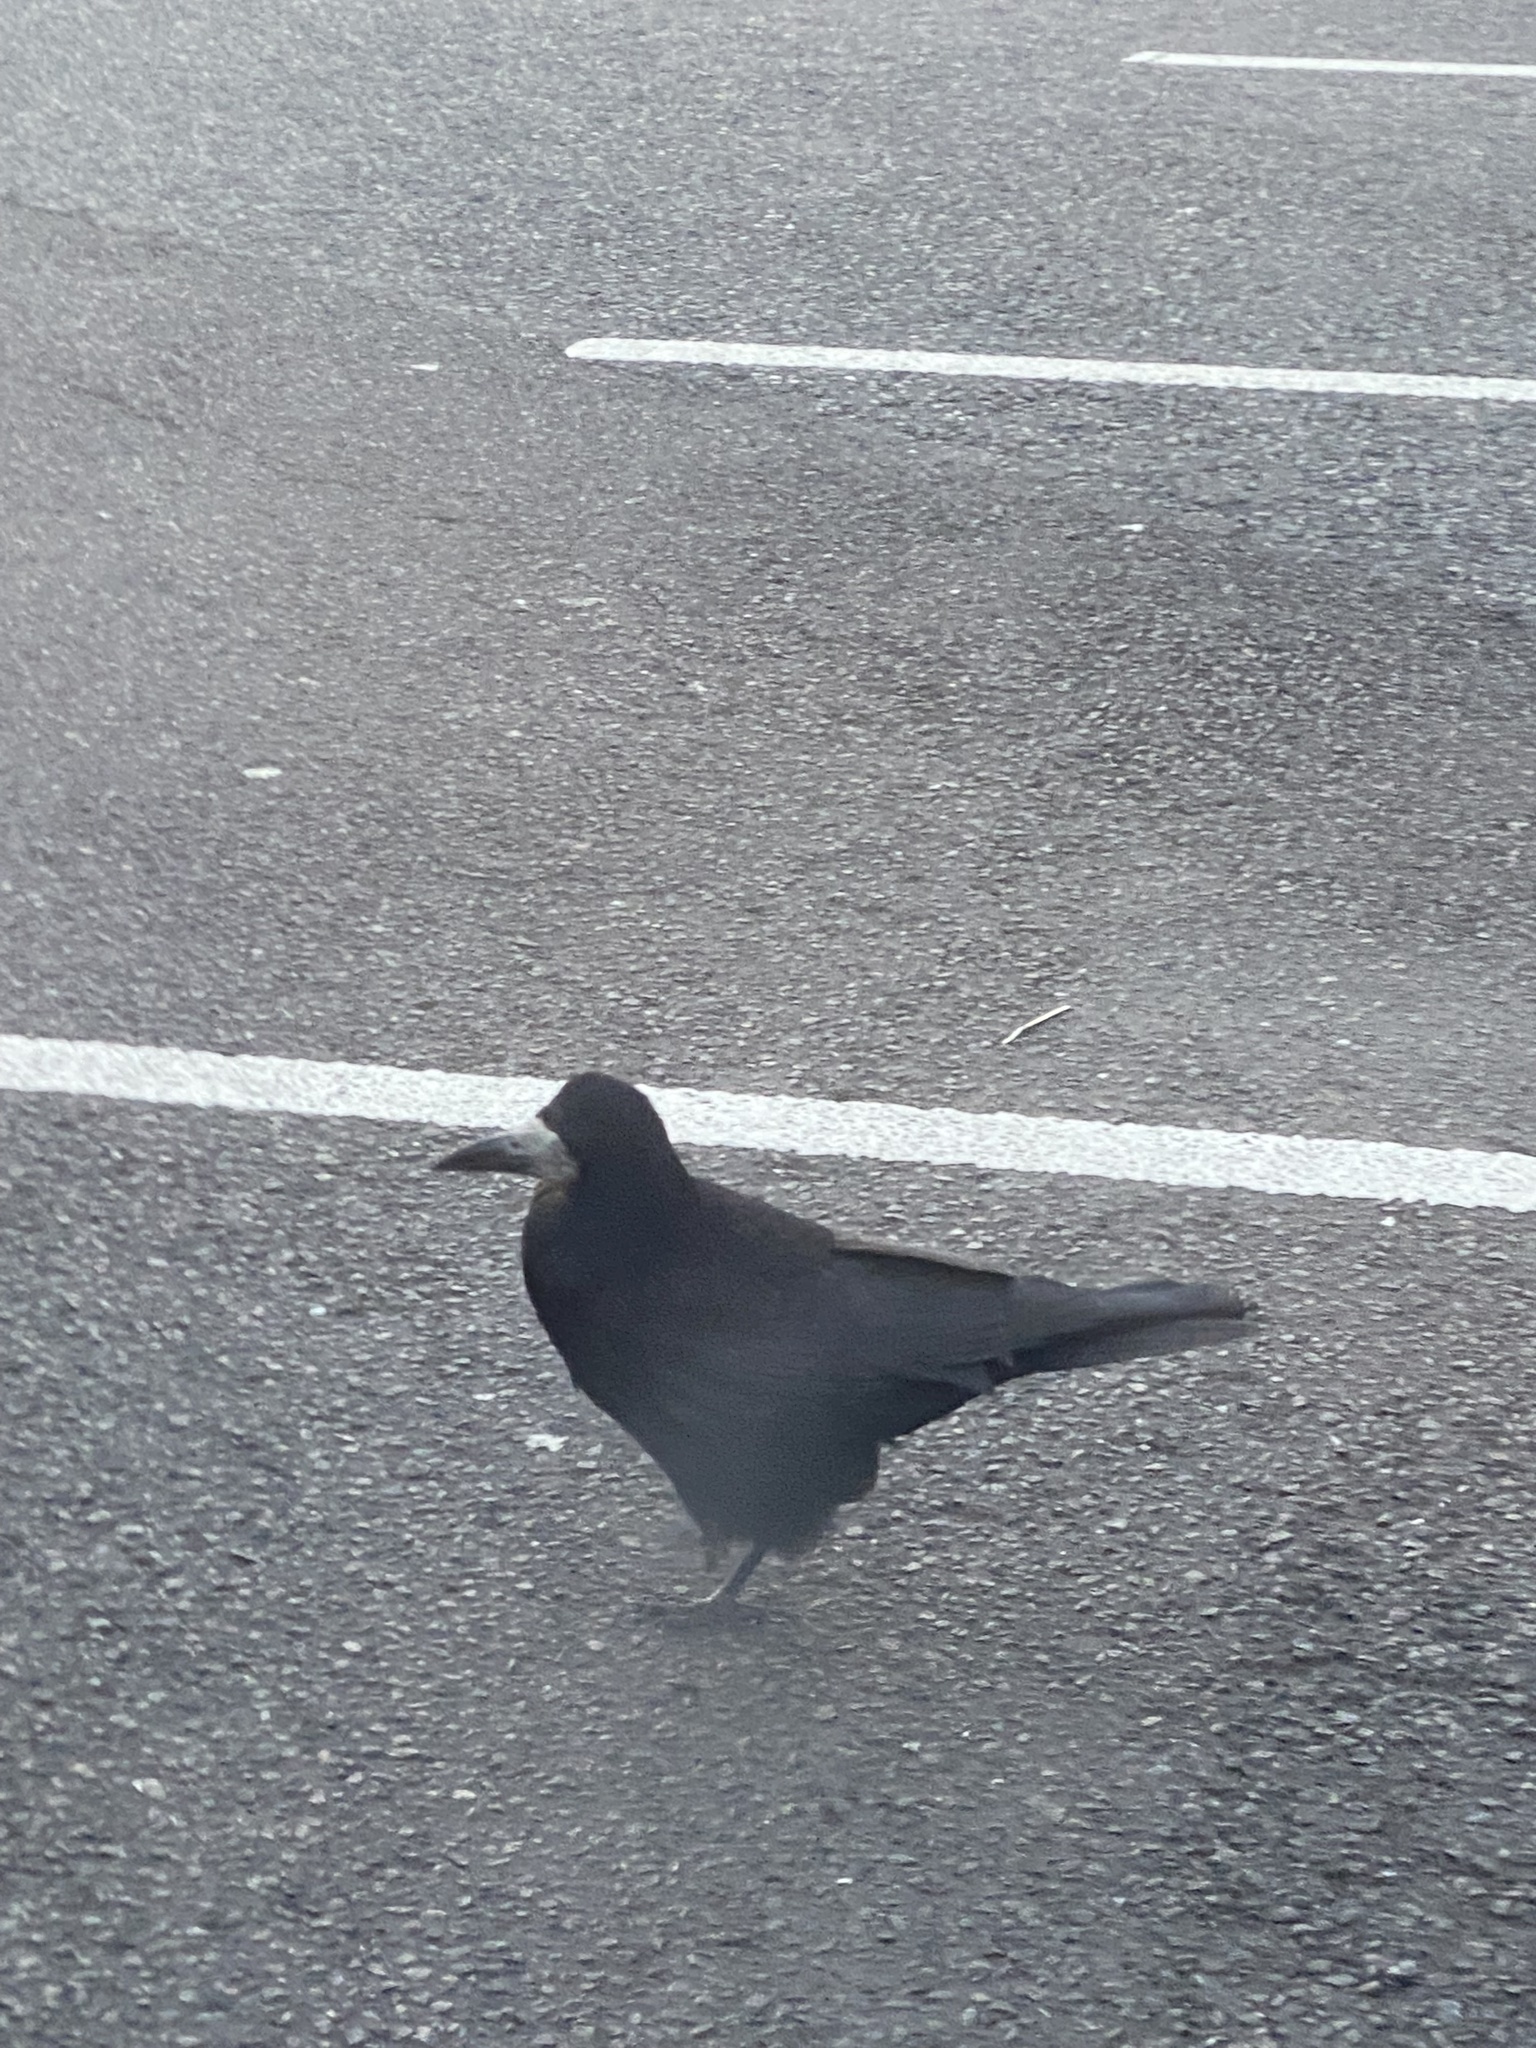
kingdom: Animalia
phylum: Chordata
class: Aves
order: Passeriformes
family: Corvidae
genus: Corvus
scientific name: Corvus frugilegus
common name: Rook
